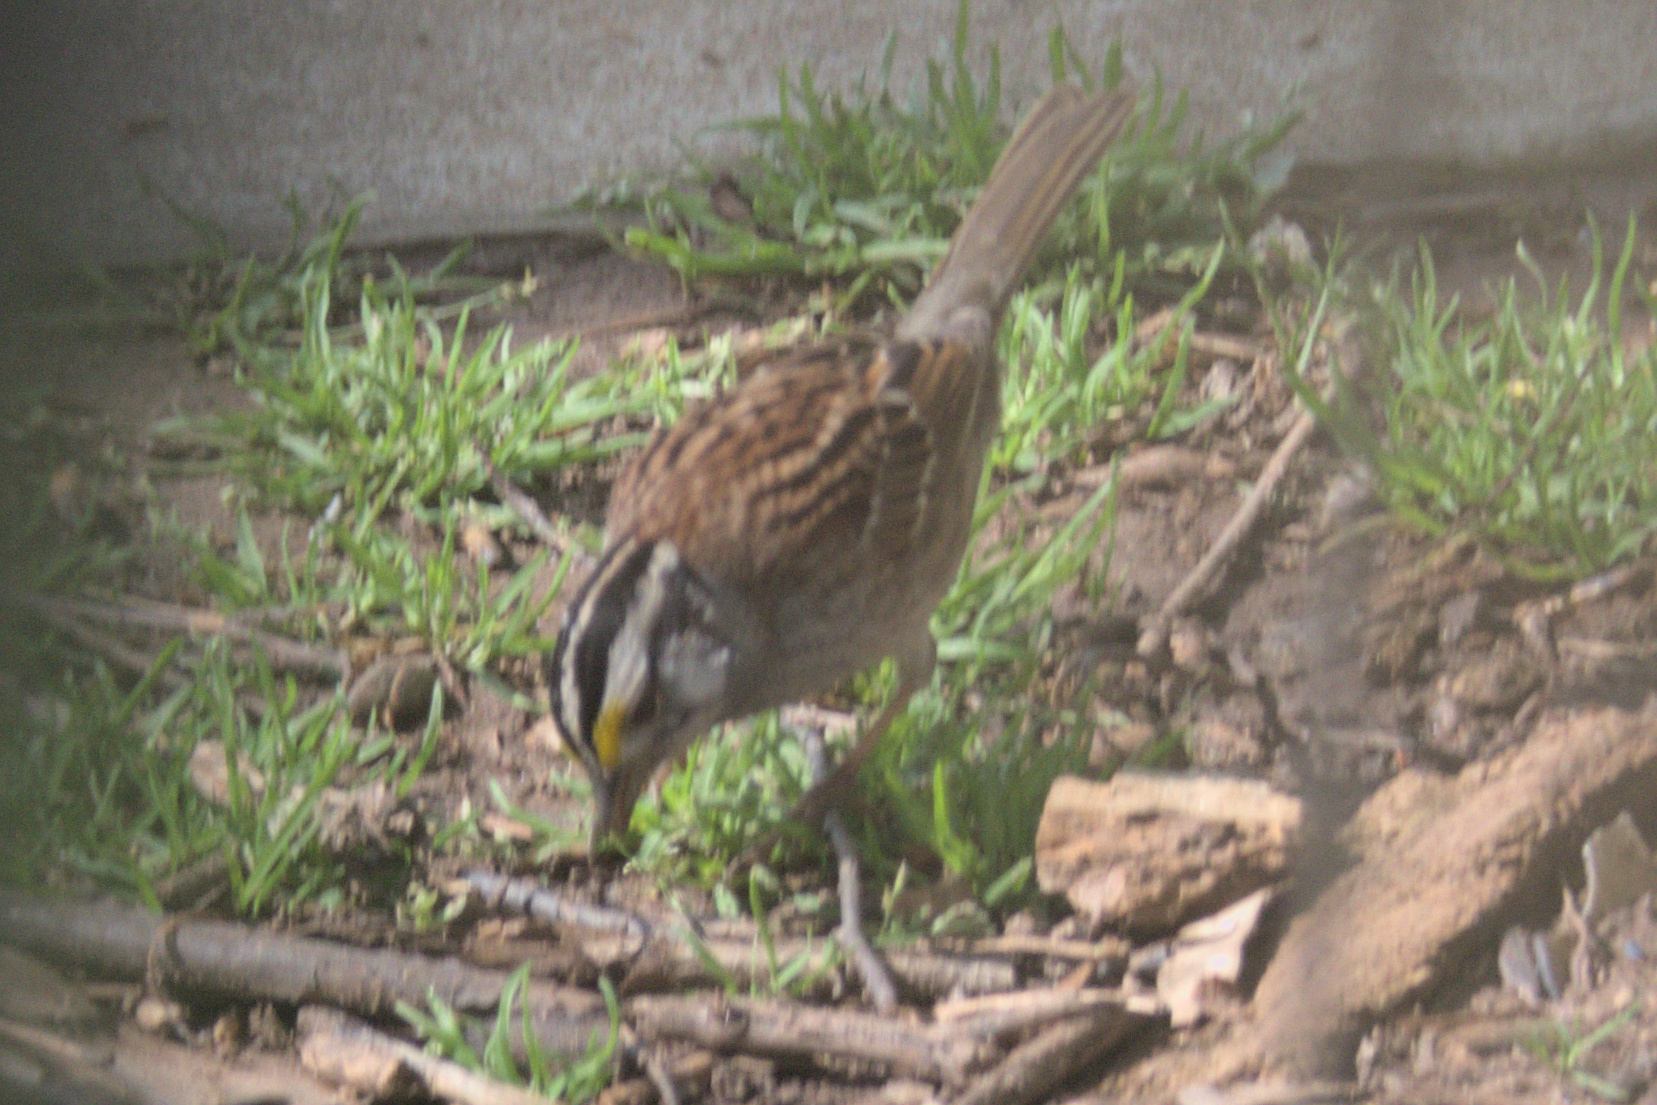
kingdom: Animalia
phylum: Chordata
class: Aves
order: Passeriformes
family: Passerellidae
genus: Zonotrichia
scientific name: Zonotrichia albicollis
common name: White-throated sparrow
